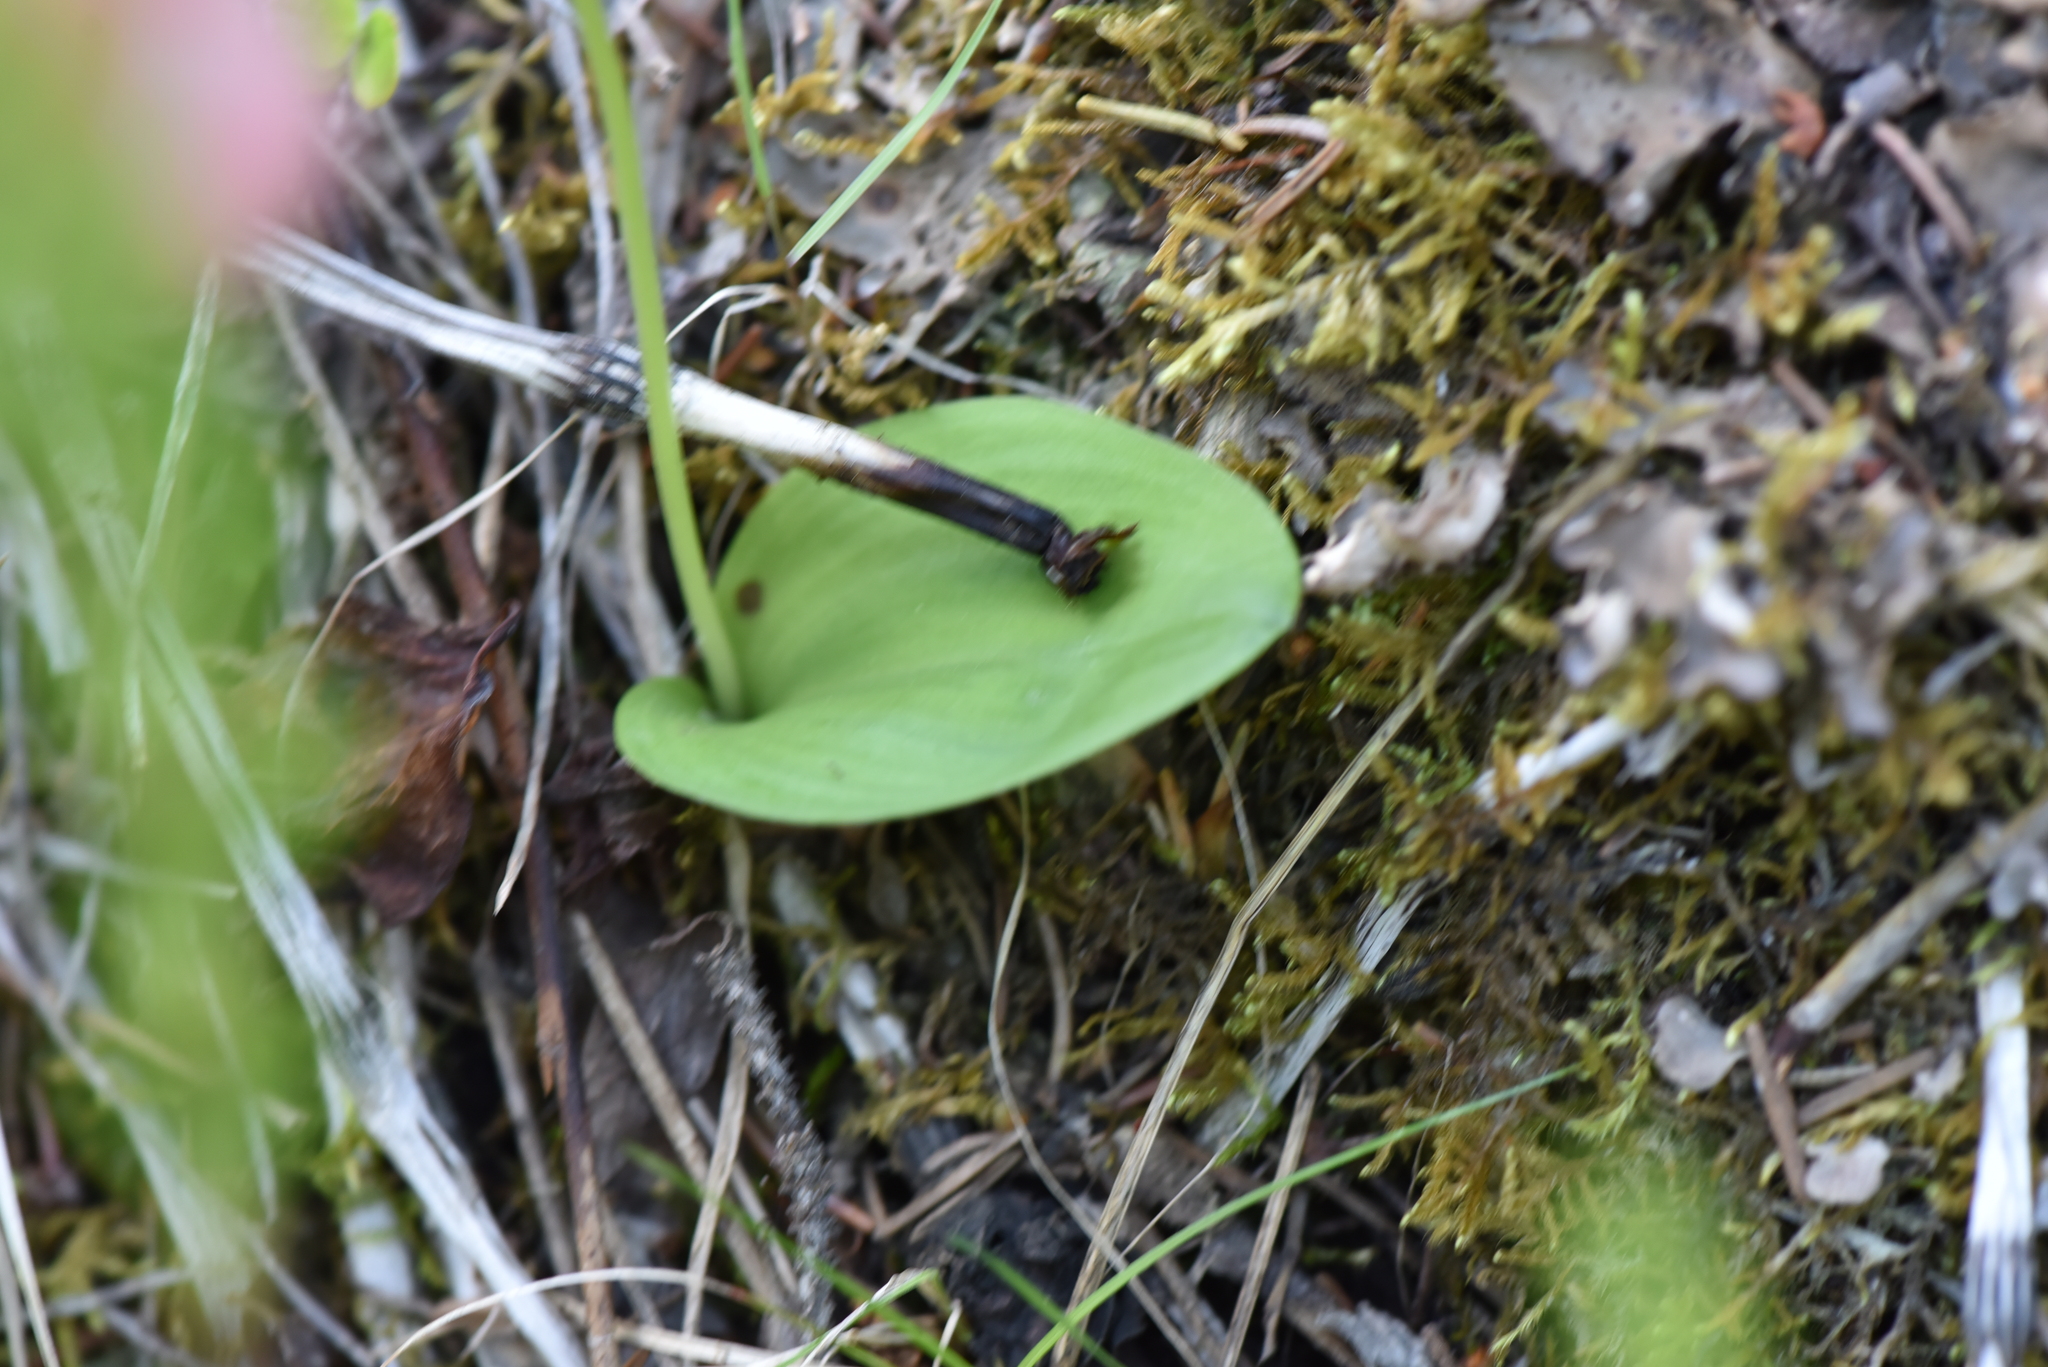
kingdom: Plantae
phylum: Tracheophyta
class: Liliopsida
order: Asparagales
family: Orchidaceae
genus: Galearis
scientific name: Galearis rotundifolia
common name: One-leaved orchis
